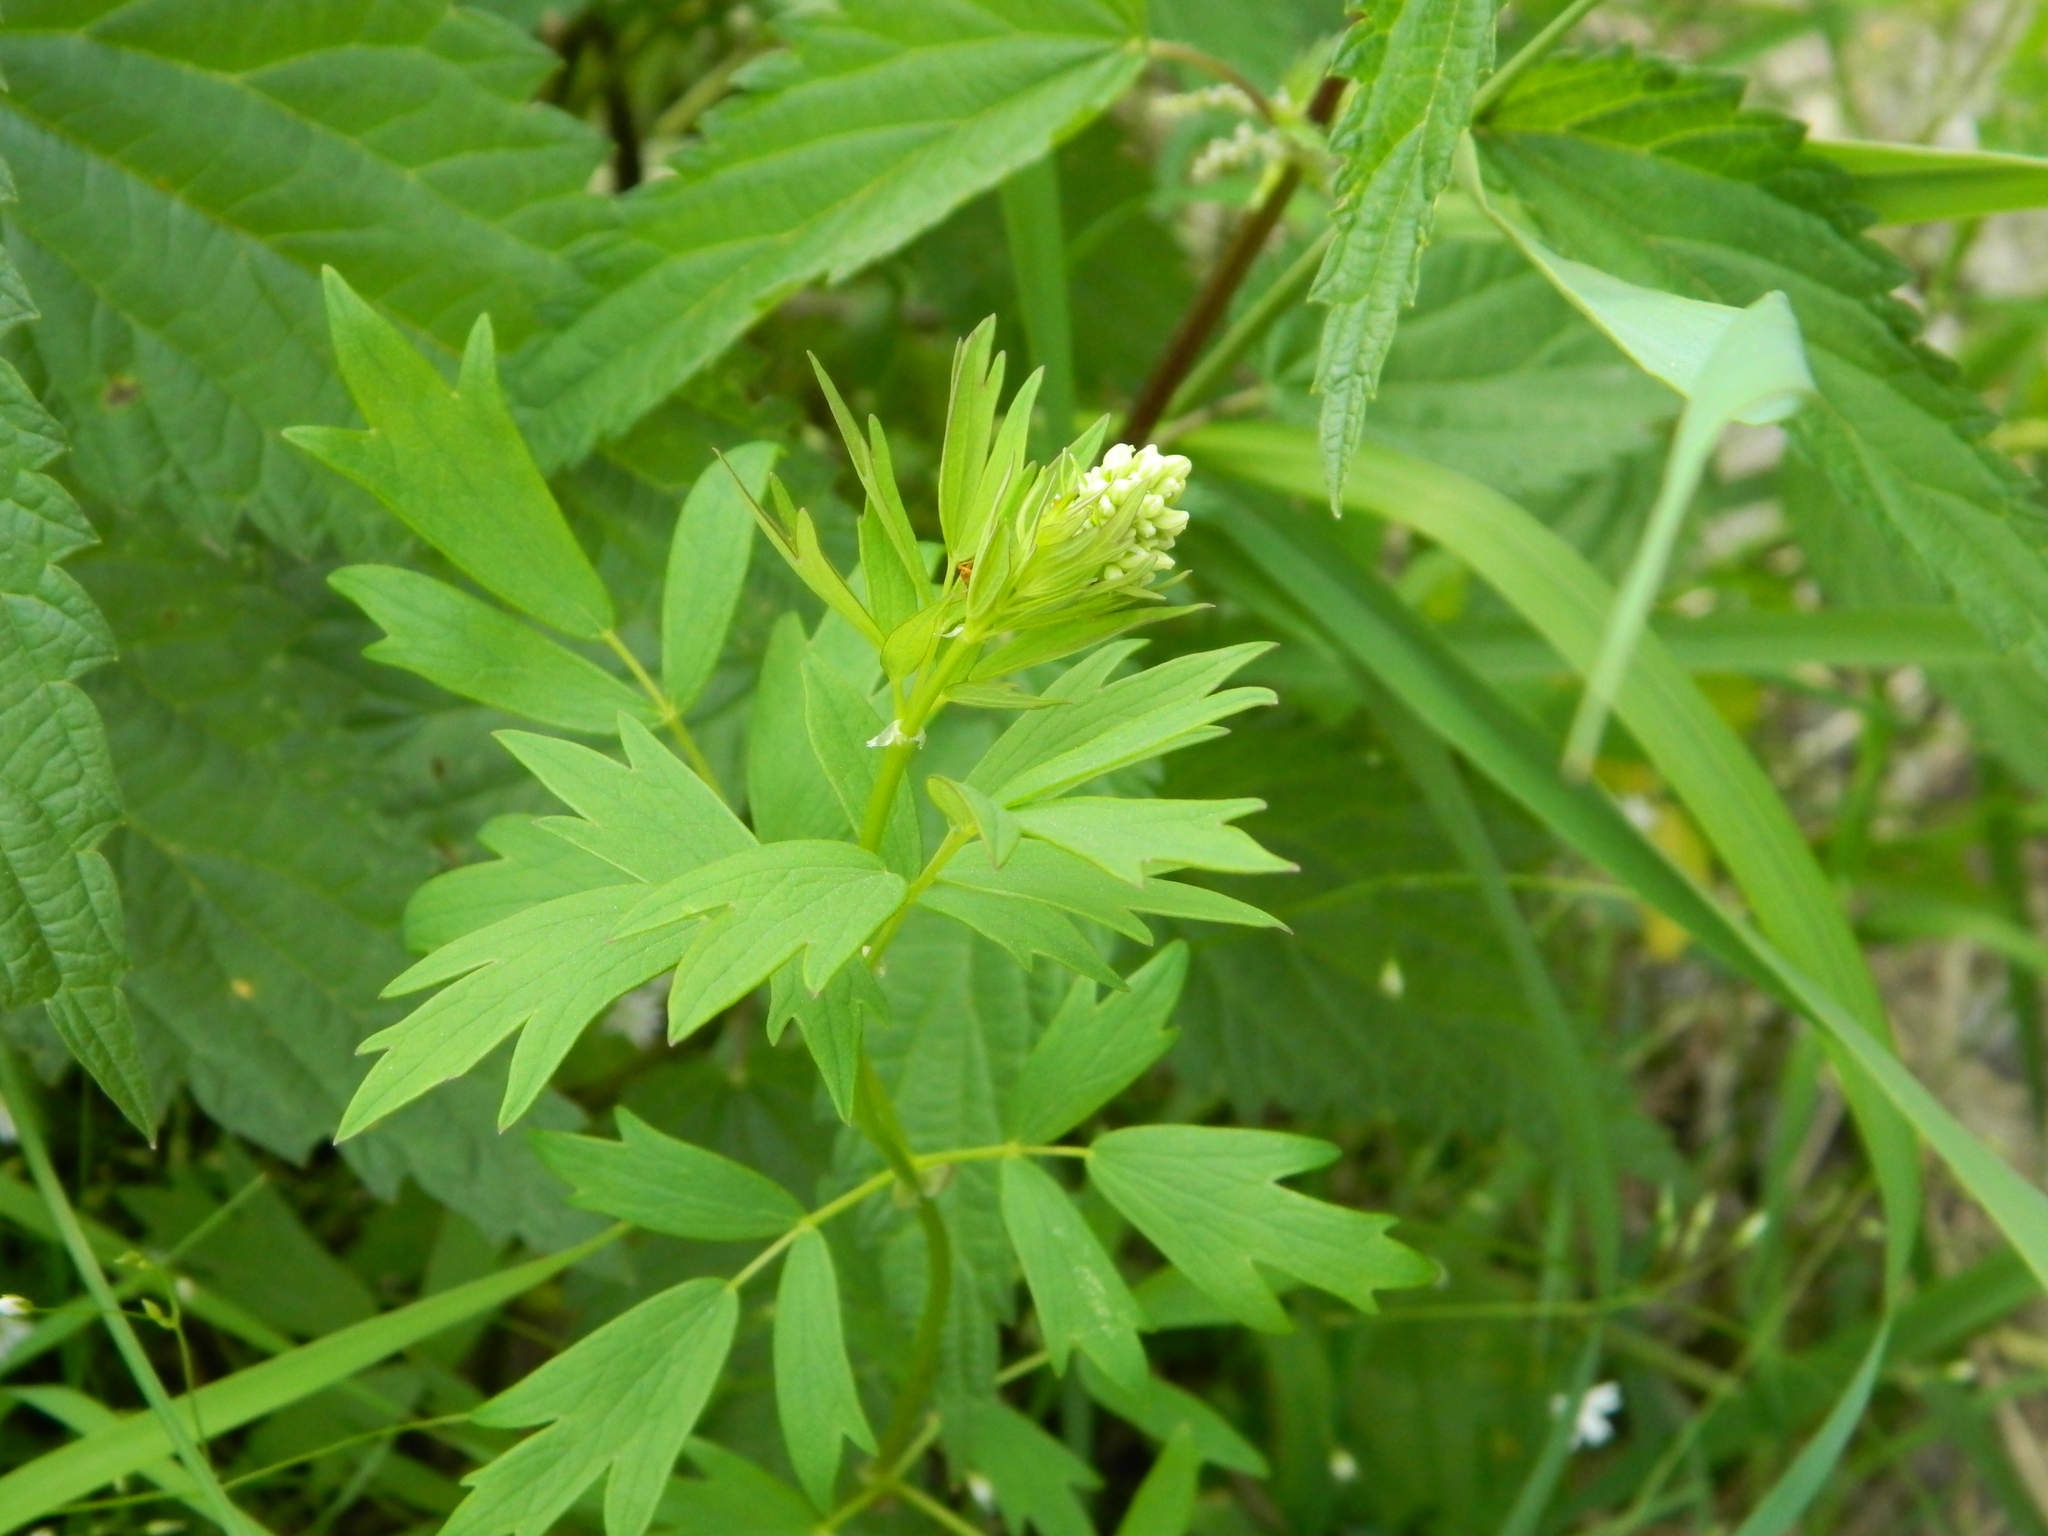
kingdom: Plantae
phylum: Tracheophyta
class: Magnoliopsida
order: Ranunculales
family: Ranunculaceae
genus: Thalictrum
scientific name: Thalictrum flavum
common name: Common meadow-rue
